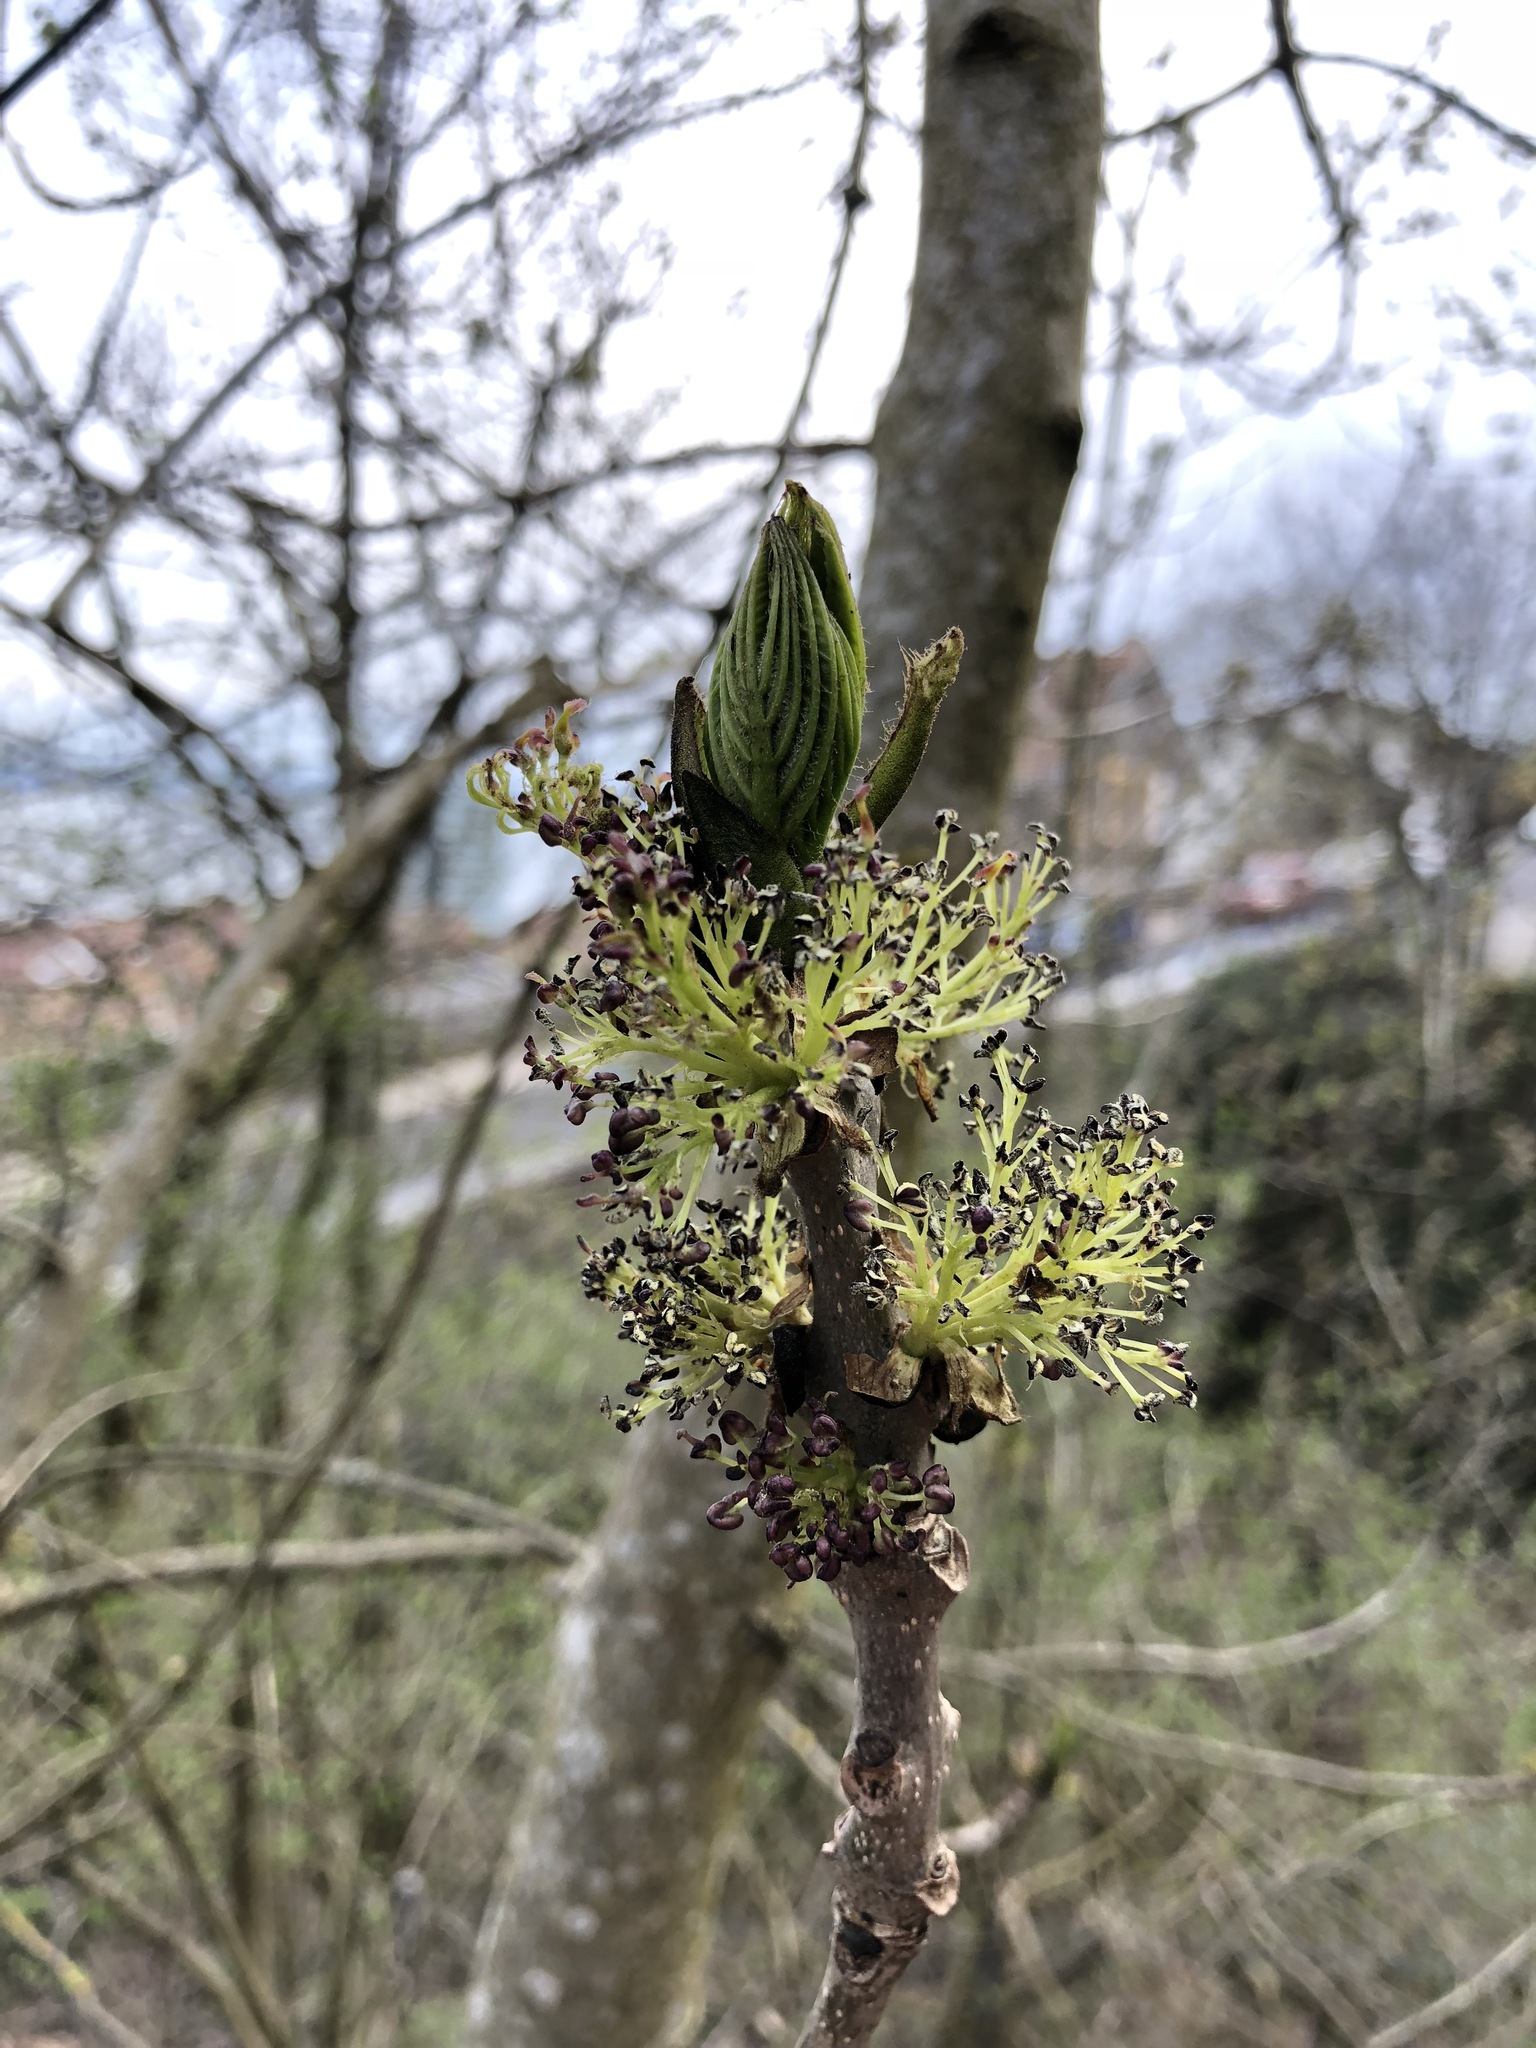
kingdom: Plantae
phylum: Tracheophyta
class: Magnoliopsida
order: Lamiales
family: Oleaceae
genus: Fraxinus
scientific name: Fraxinus excelsior
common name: European ash
